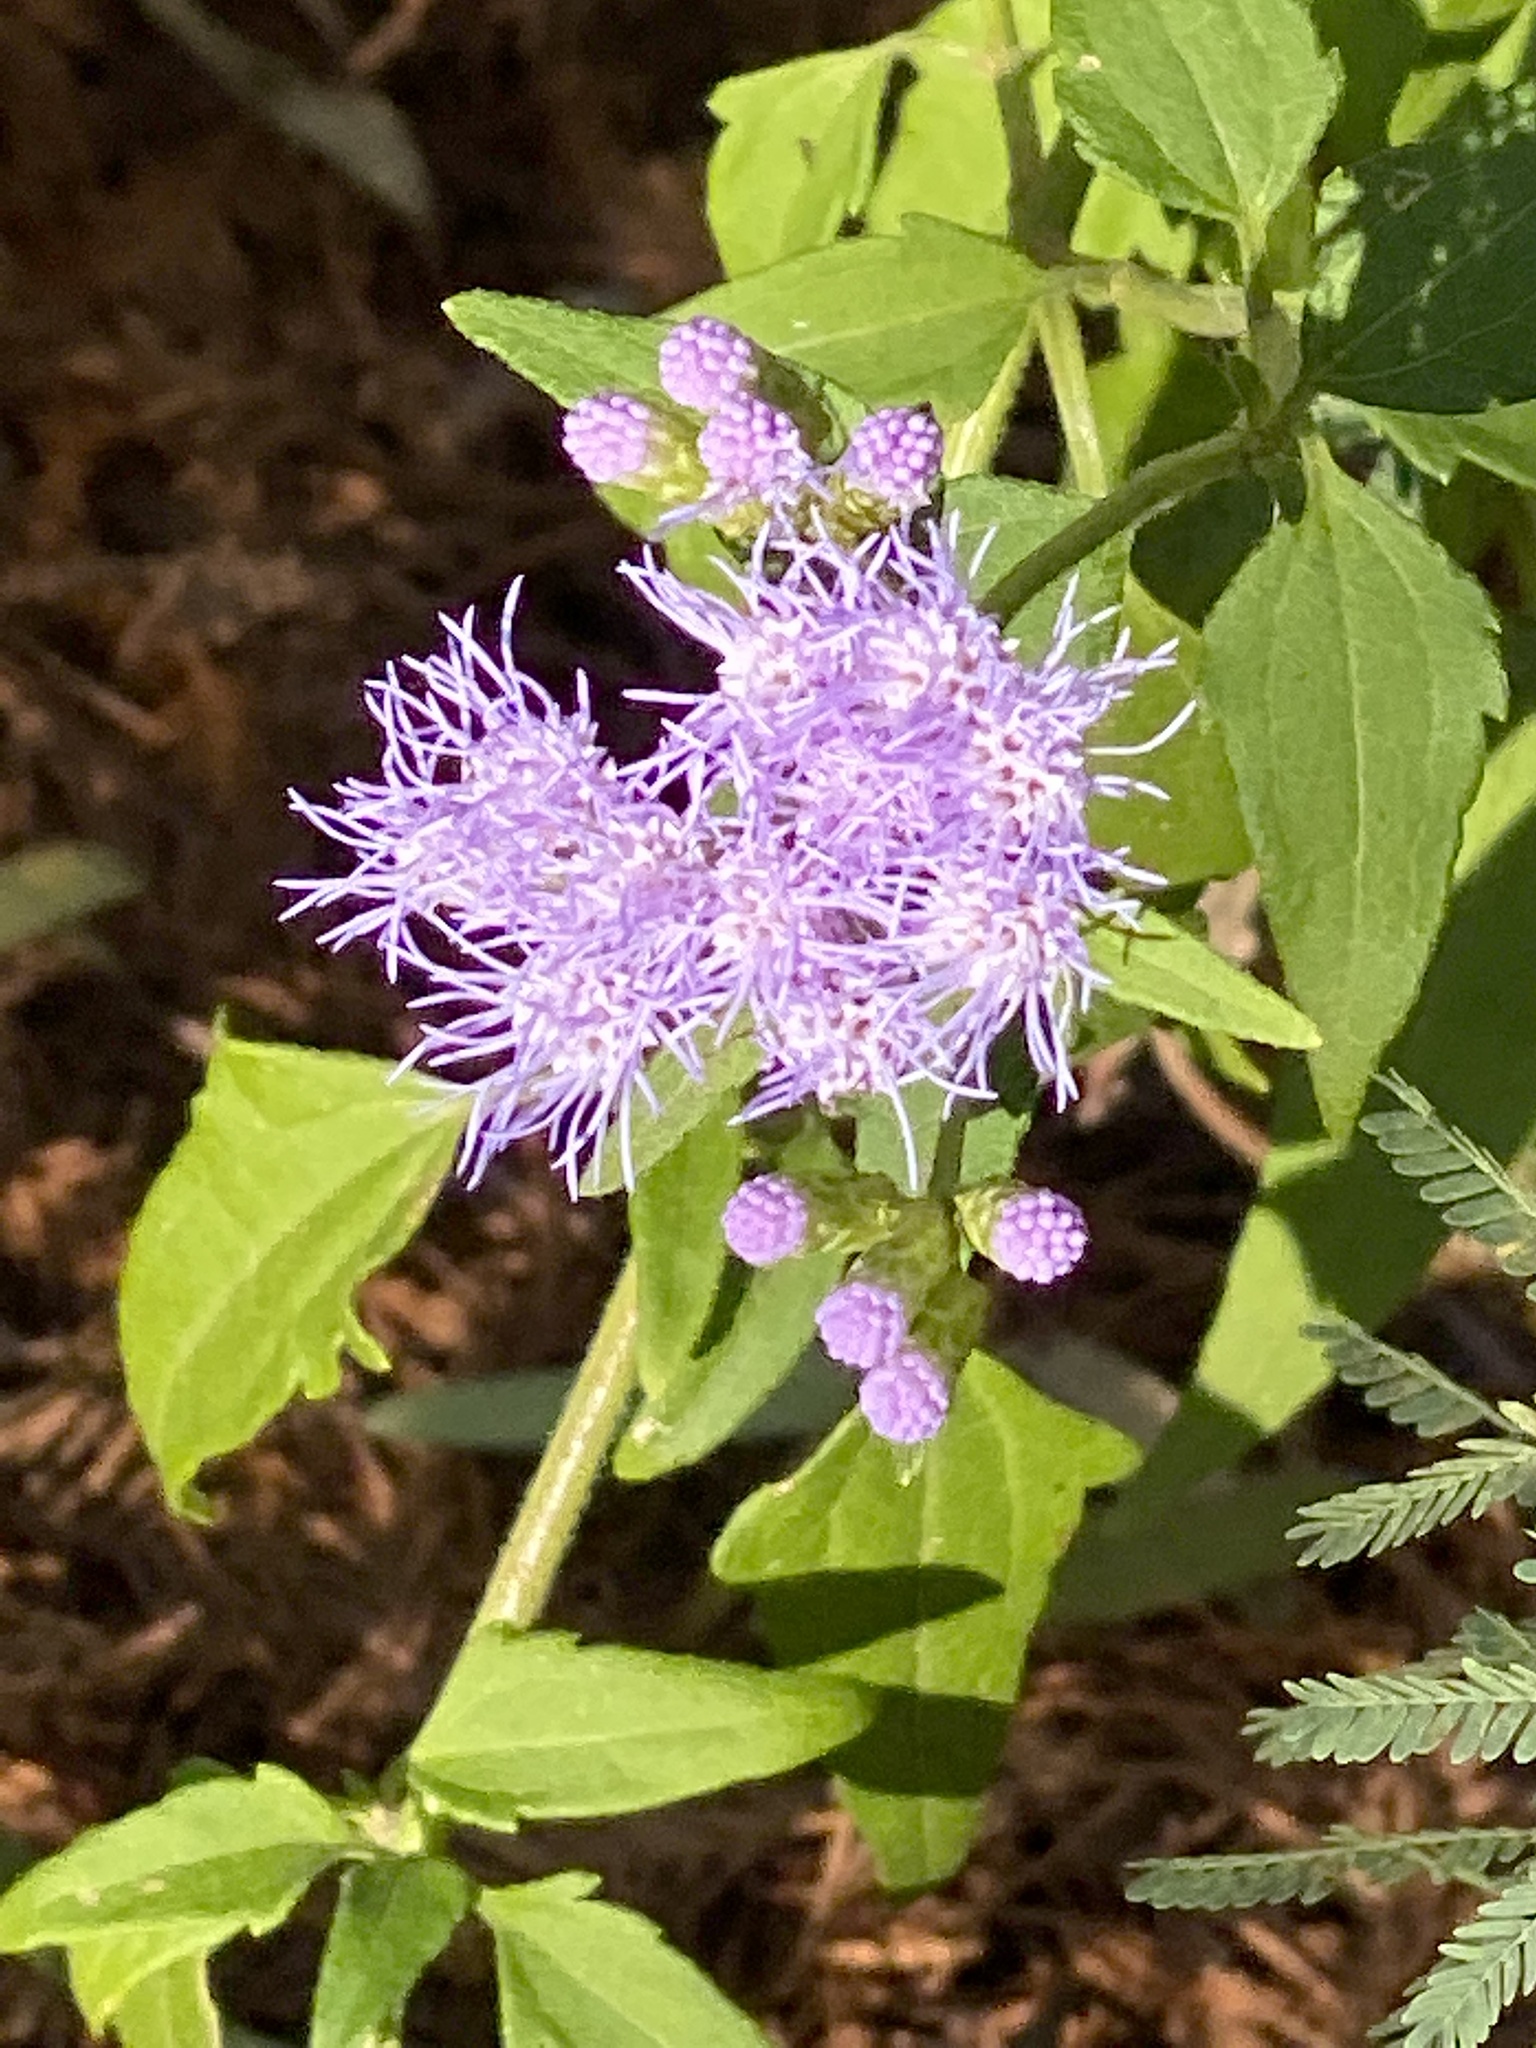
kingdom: Plantae
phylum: Tracheophyta
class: Magnoliopsida
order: Asterales
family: Asteraceae
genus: Chromolaena
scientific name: Chromolaena odorata
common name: Siamweed
